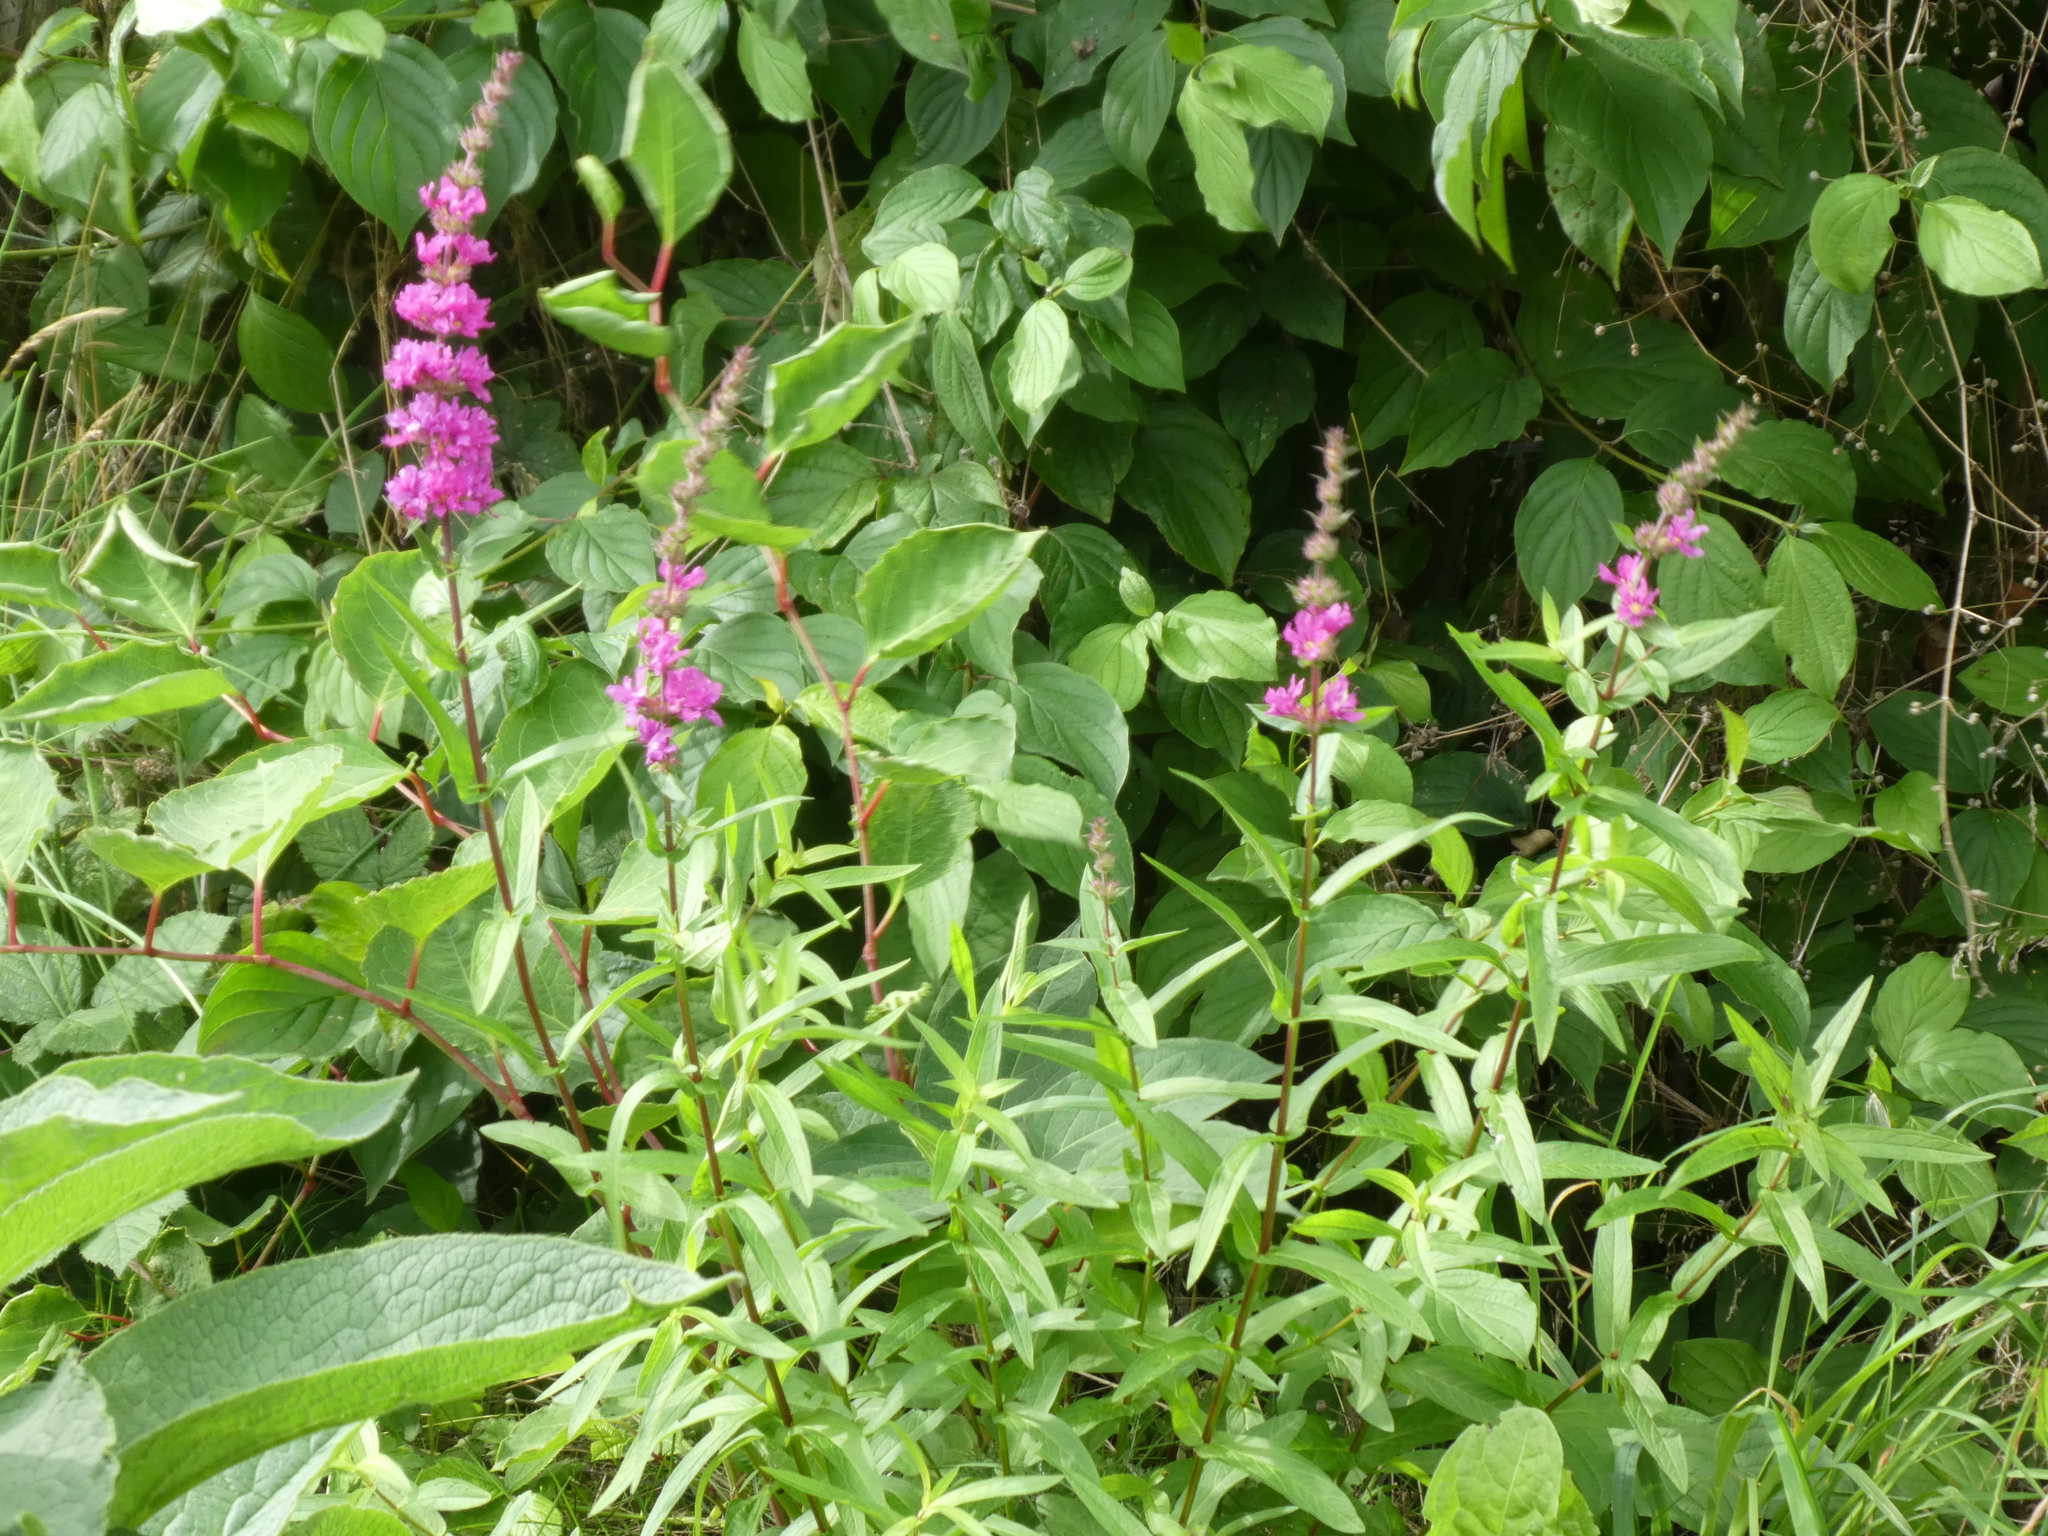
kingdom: Plantae
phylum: Tracheophyta
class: Magnoliopsida
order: Myrtales
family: Lythraceae
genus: Lythrum
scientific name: Lythrum salicaria
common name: Purple loosestrife
